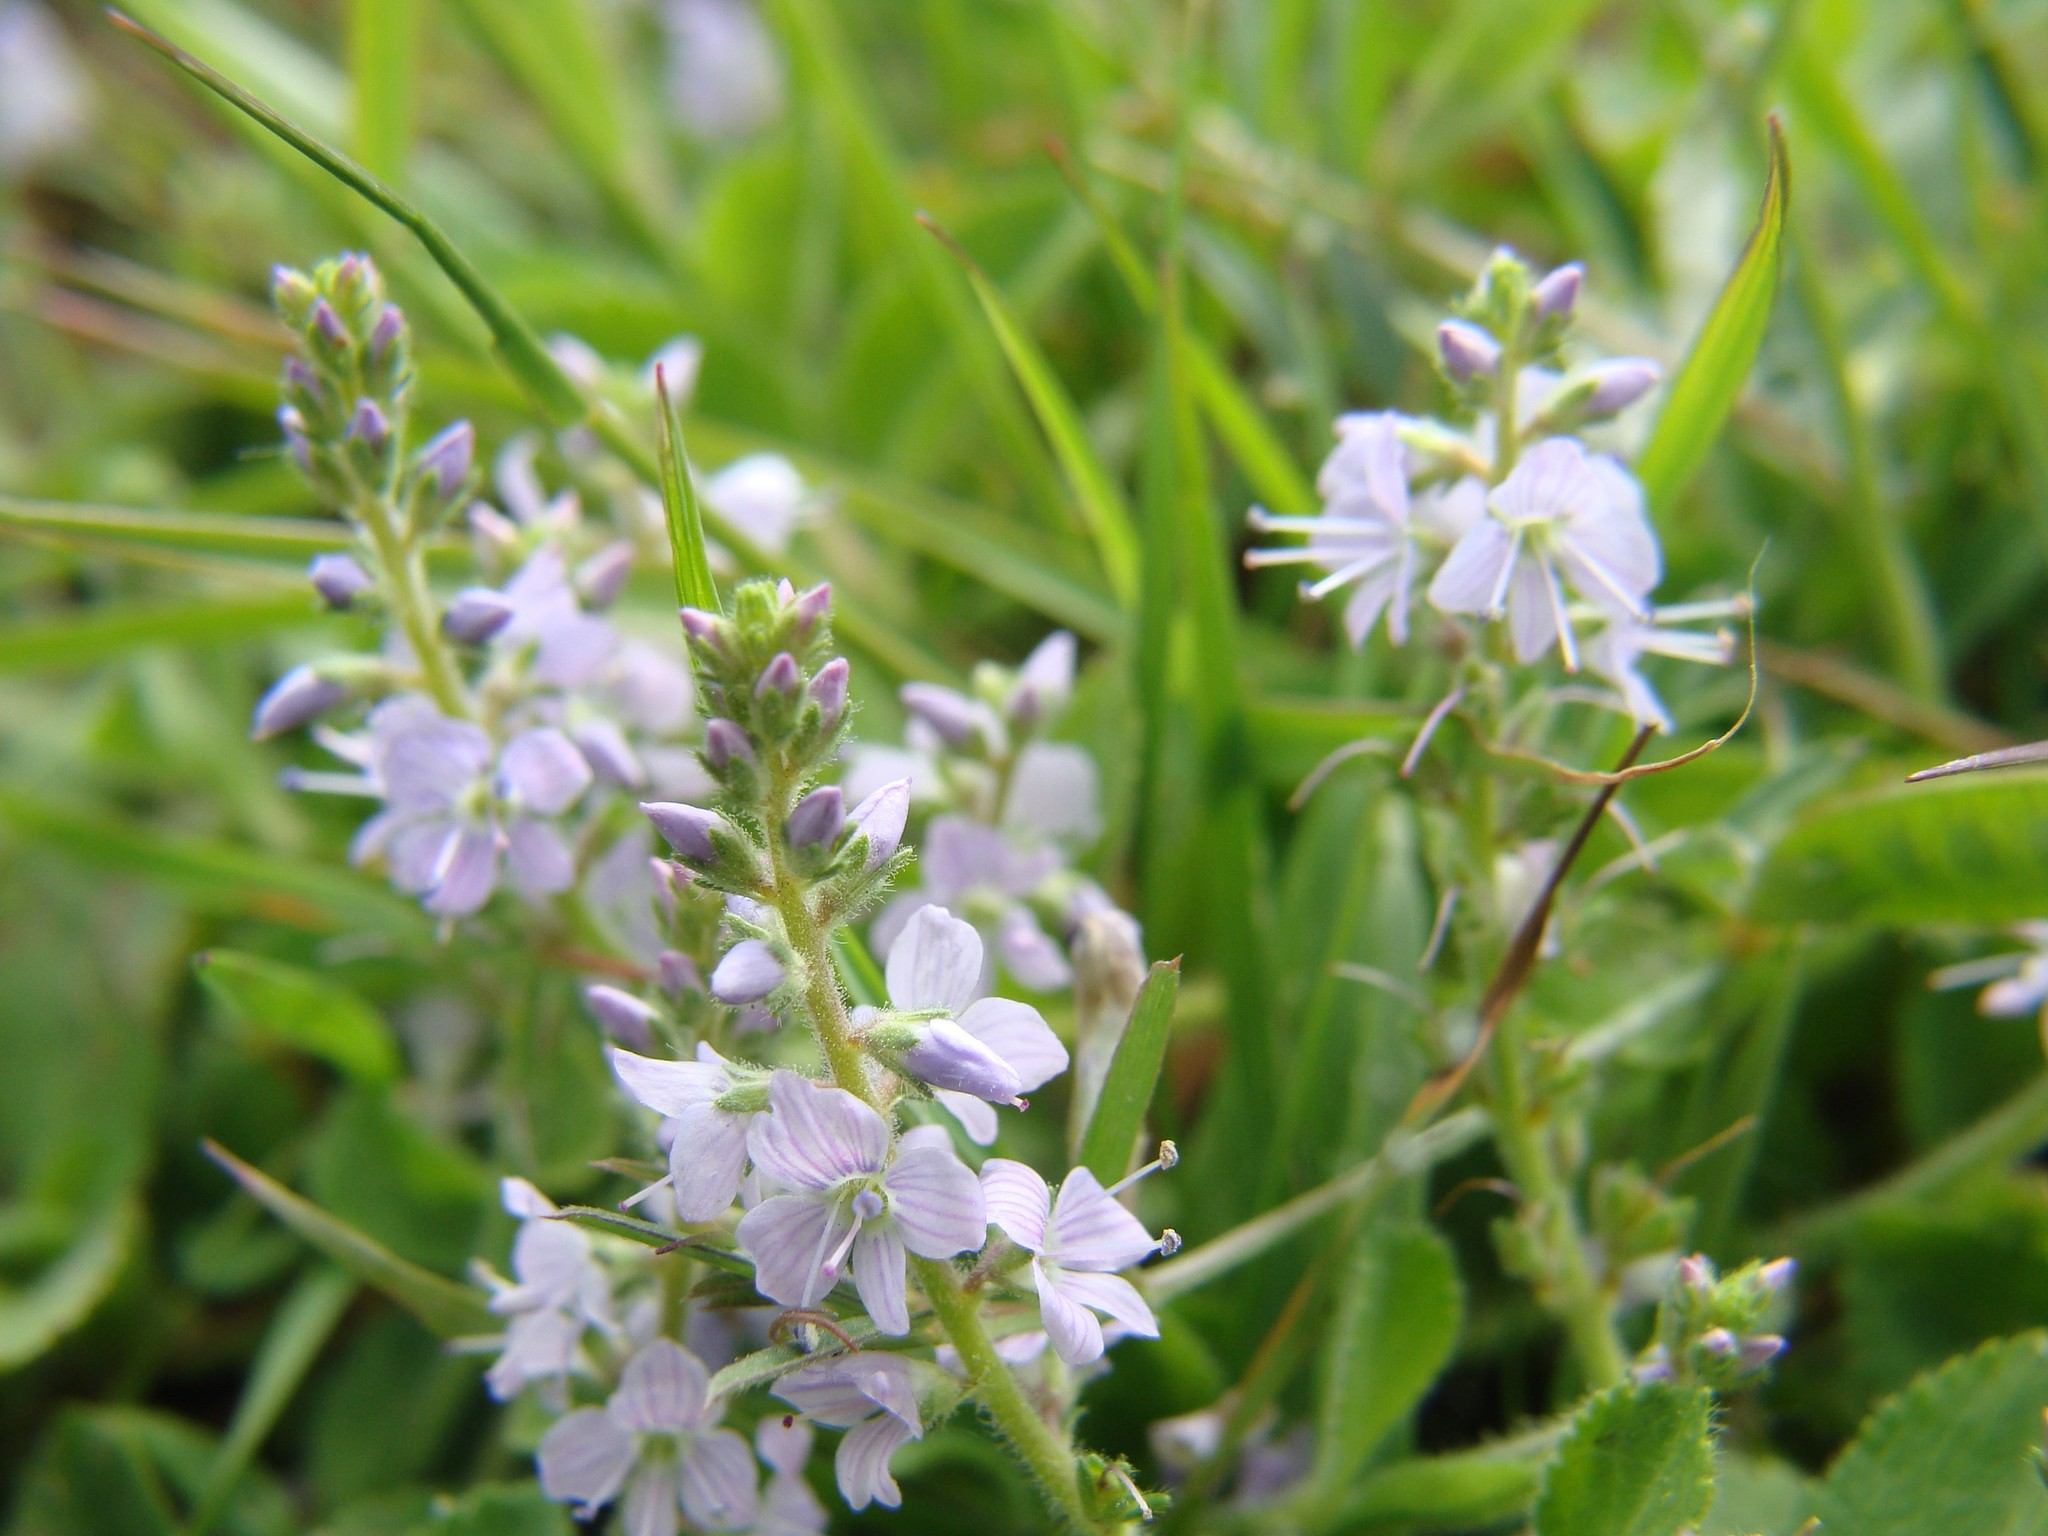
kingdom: Plantae
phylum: Tracheophyta
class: Magnoliopsida
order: Lamiales
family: Plantaginaceae
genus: Veronica
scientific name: Veronica officinalis
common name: Common speedwell
